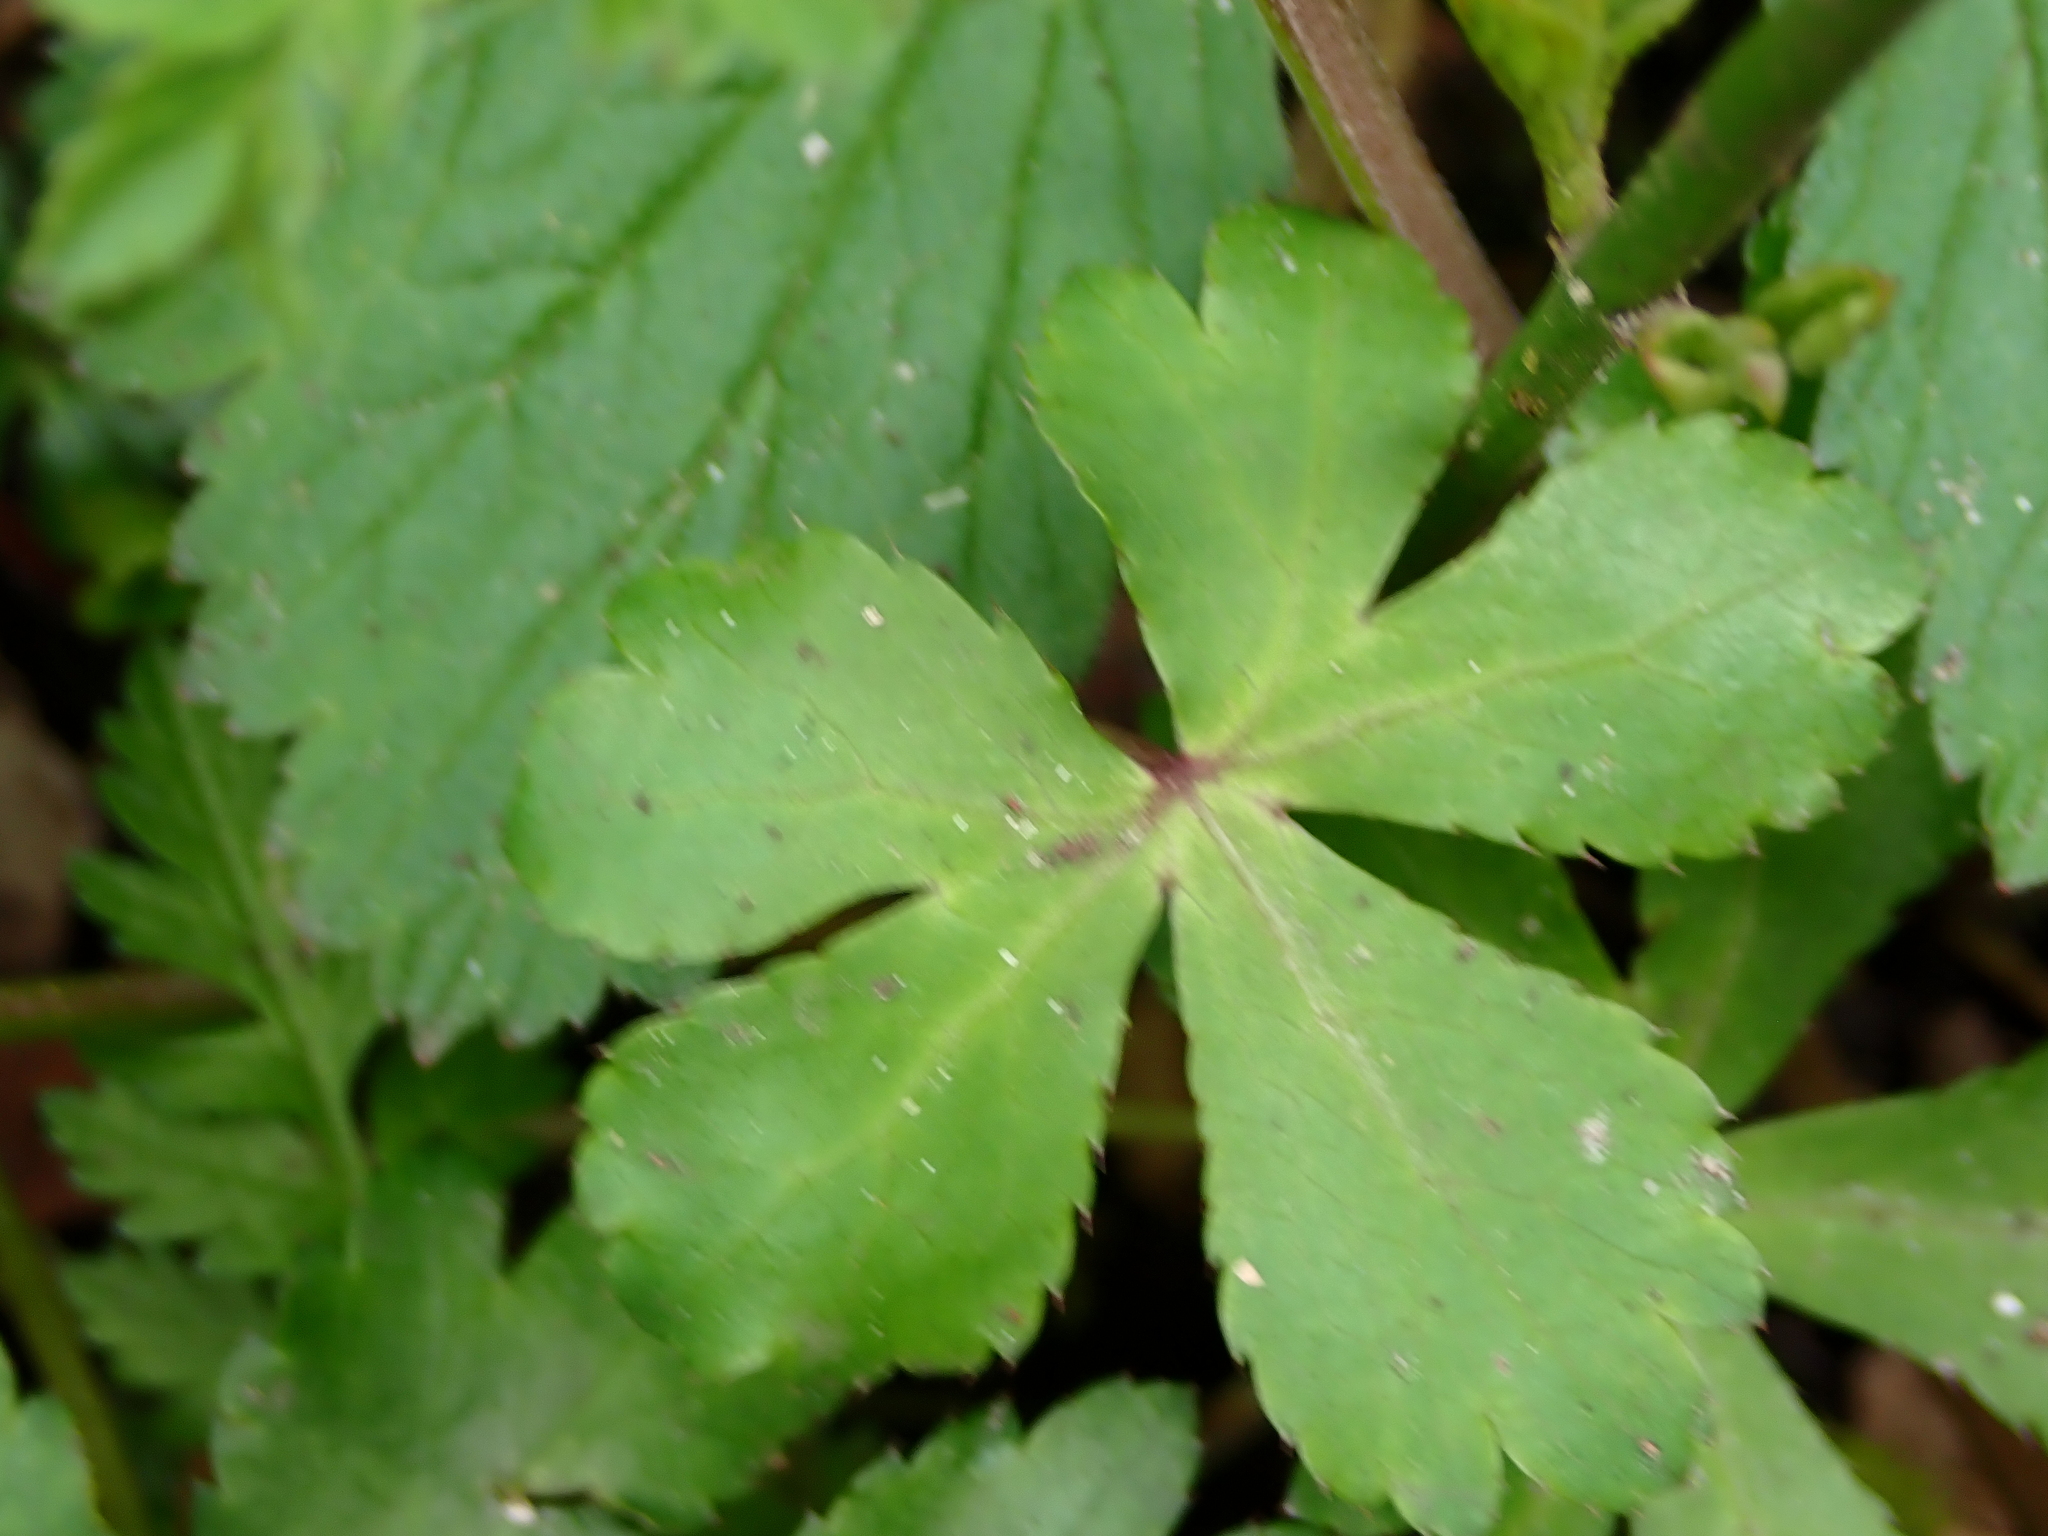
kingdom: Plantae
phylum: Tracheophyta
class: Magnoliopsida
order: Apiales
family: Apiaceae
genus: Sanicula
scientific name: Sanicula europaea
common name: Sanicle
